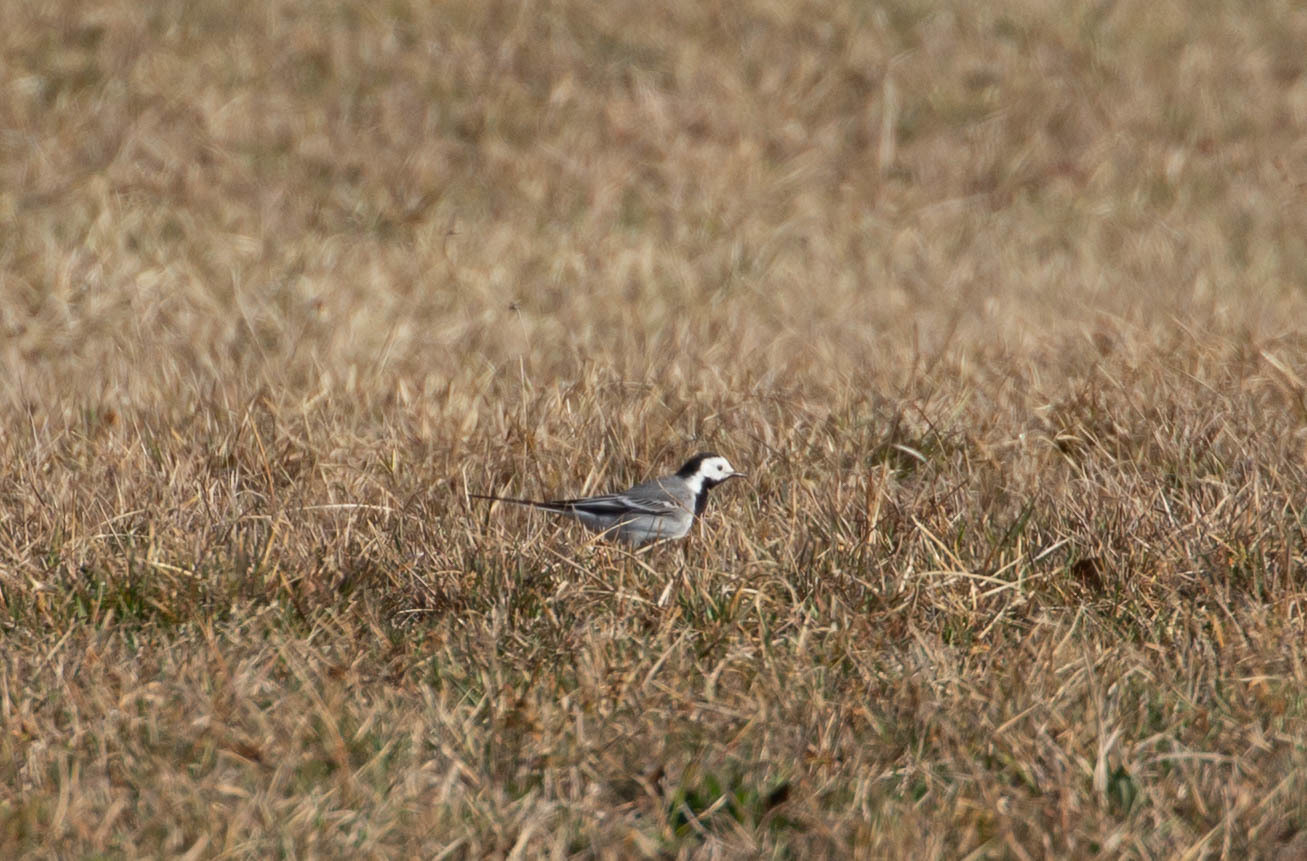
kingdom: Animalia
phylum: Chordata
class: Aves
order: Passeriformes
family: Motacillidae
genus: Motacilla
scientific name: Motacilla alba
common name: White wagtail
